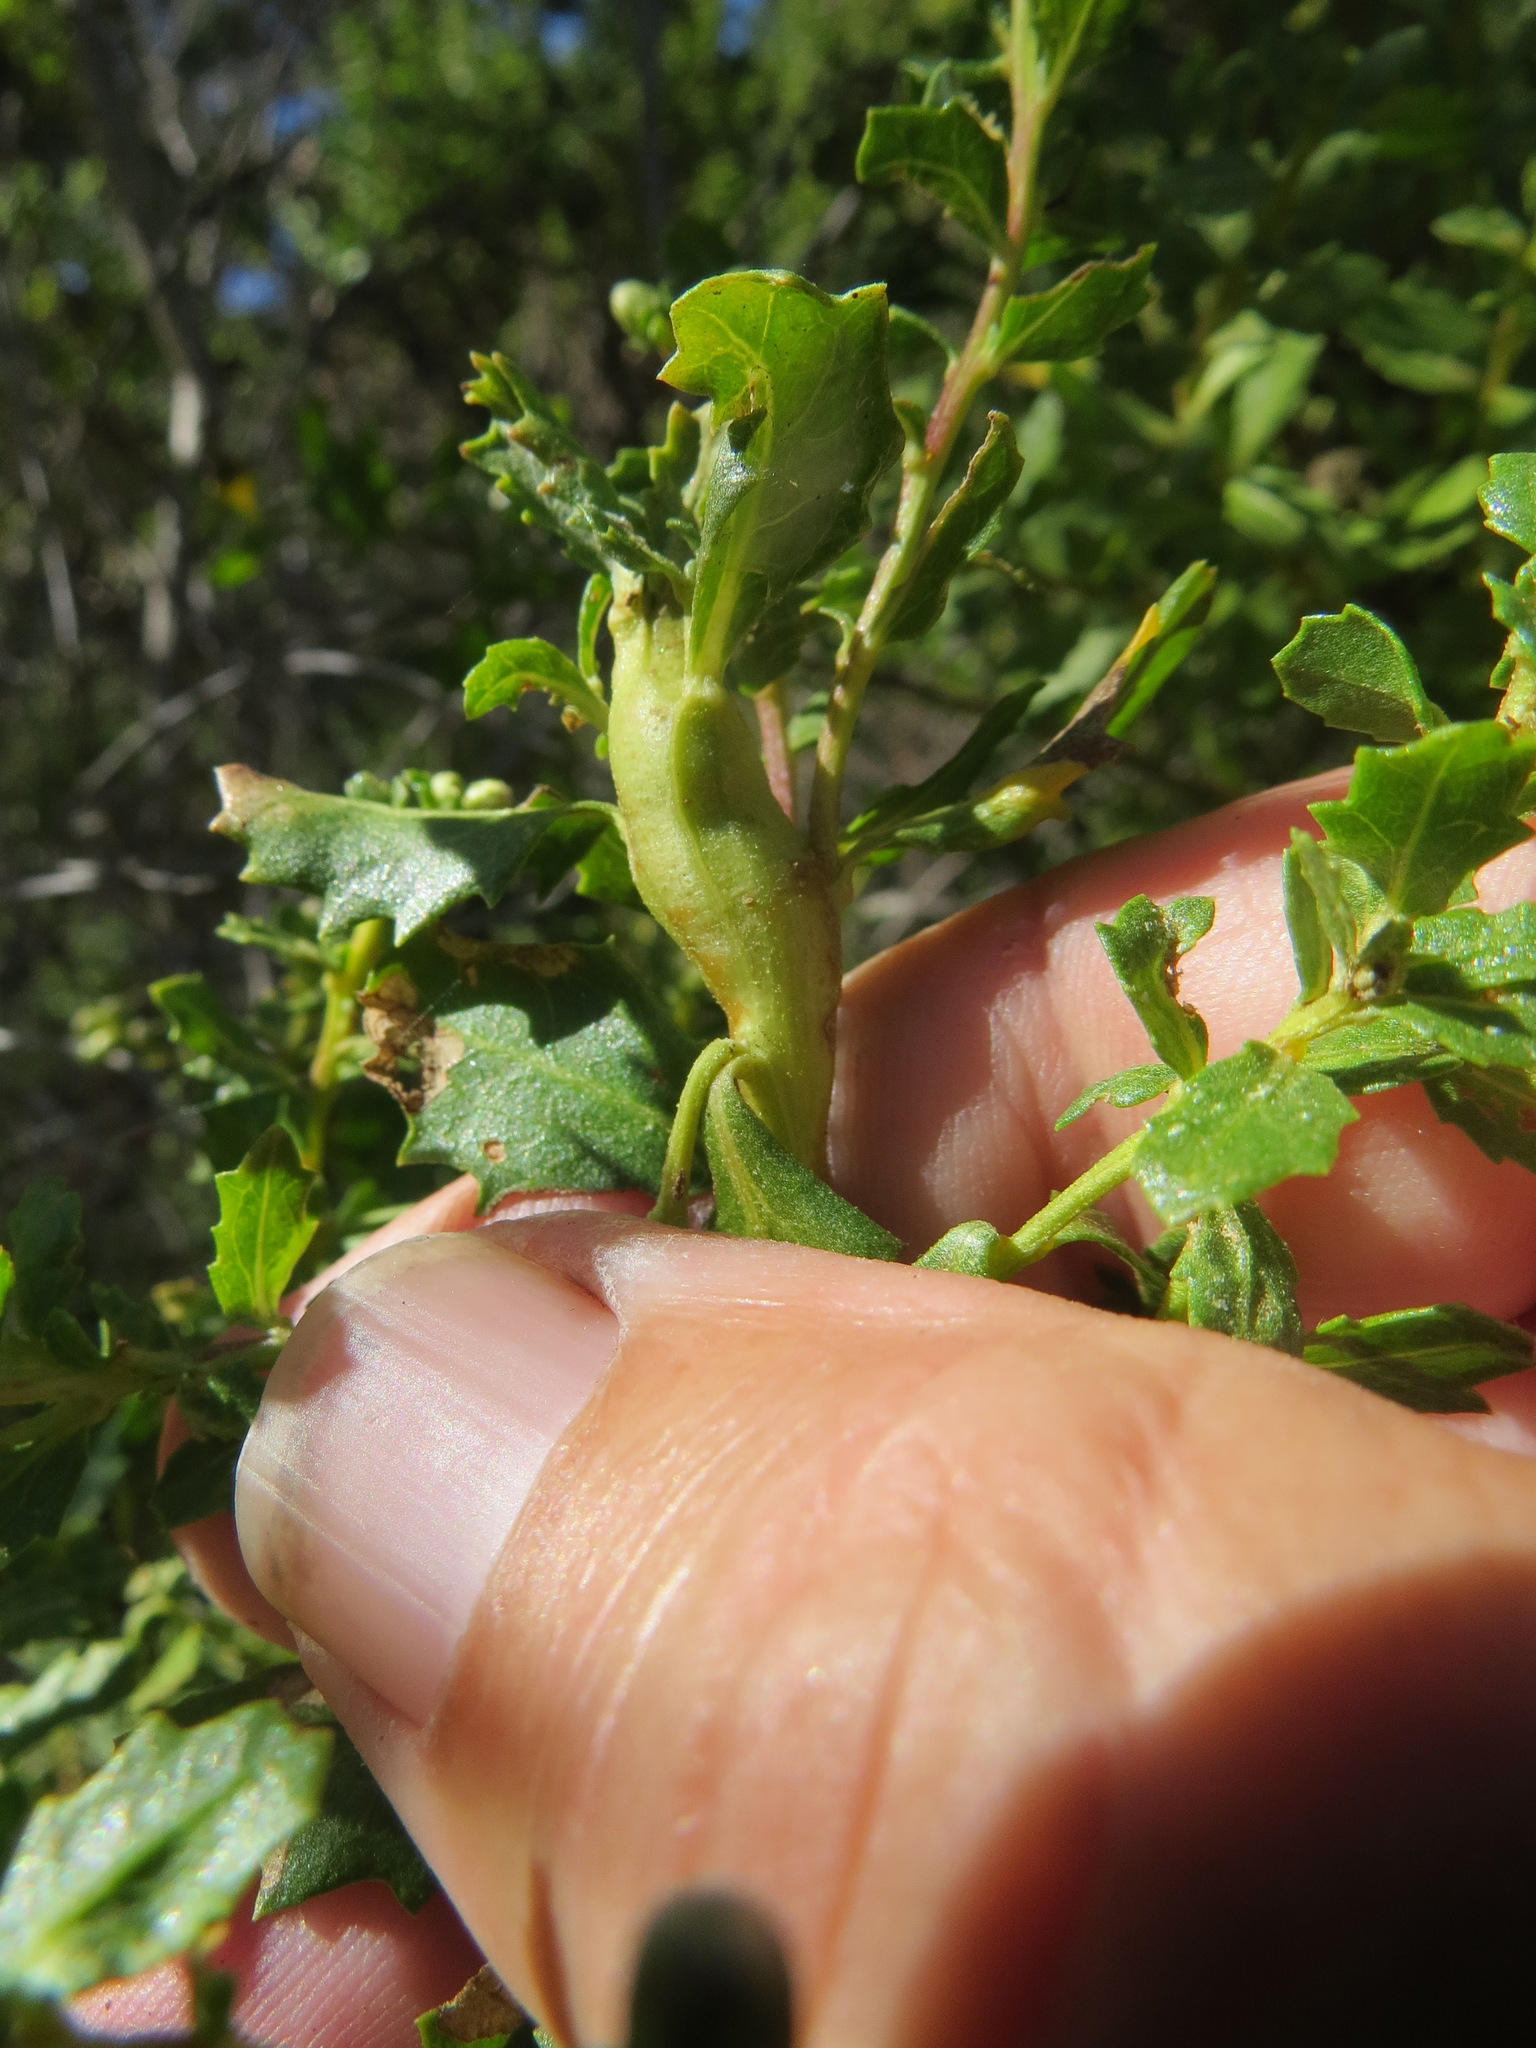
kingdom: Animalia
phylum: Arthropoda
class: Insecta
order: Diptera
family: Cecidomyiidae
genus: Rhopalomyia
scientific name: Rhopalomyia baccharis
